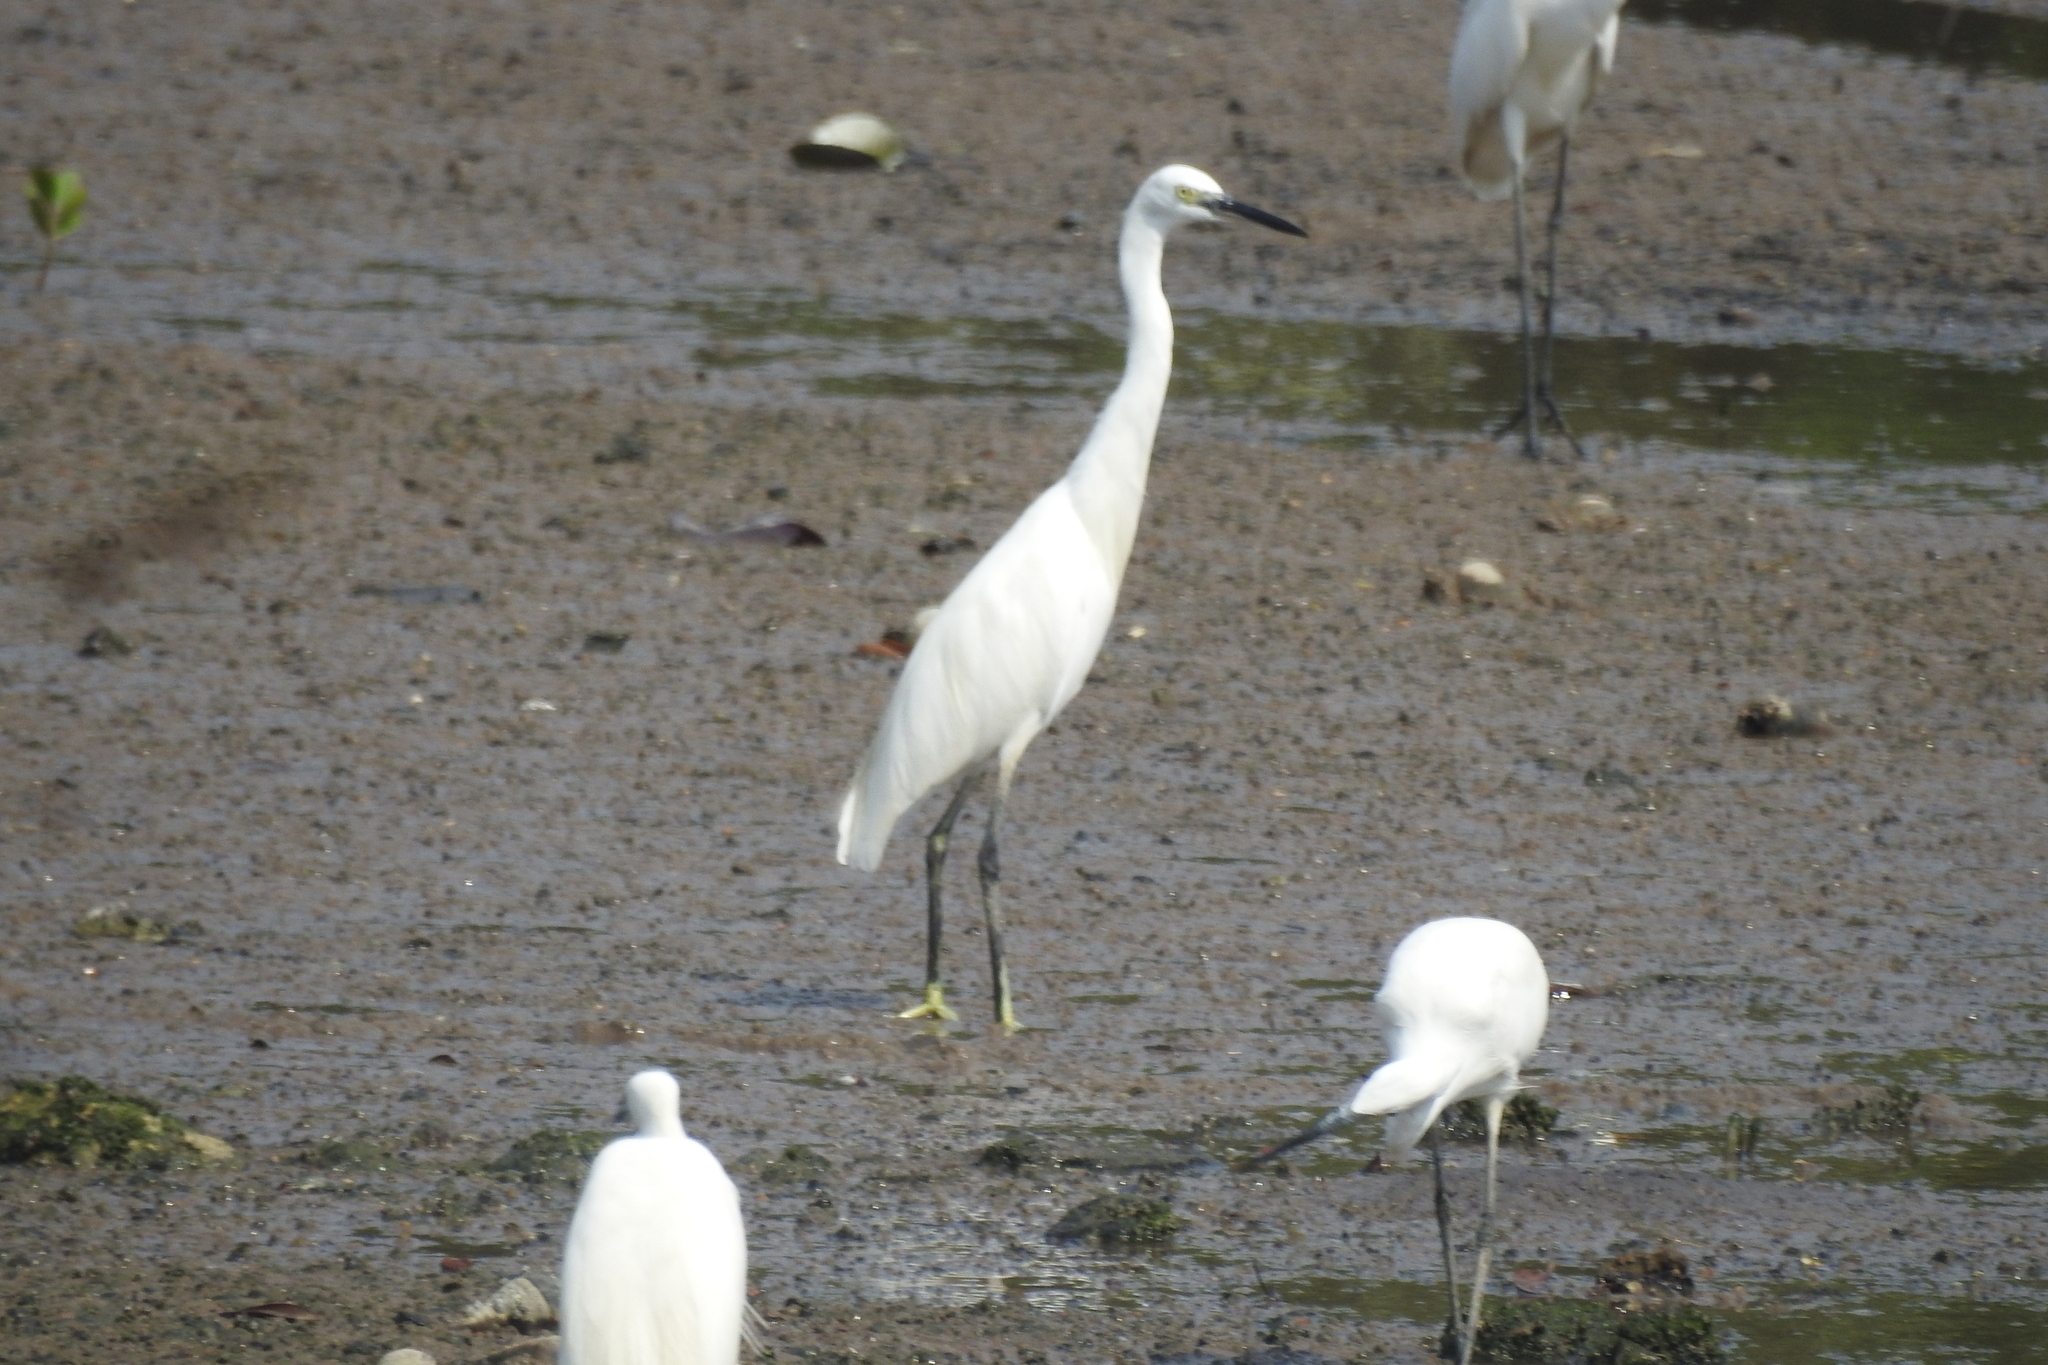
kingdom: Animalia
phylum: Chordata
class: Aves
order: Pelecaniformes
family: Ardeidae
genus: Egretta
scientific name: Egretta garzetta
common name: Little egret
